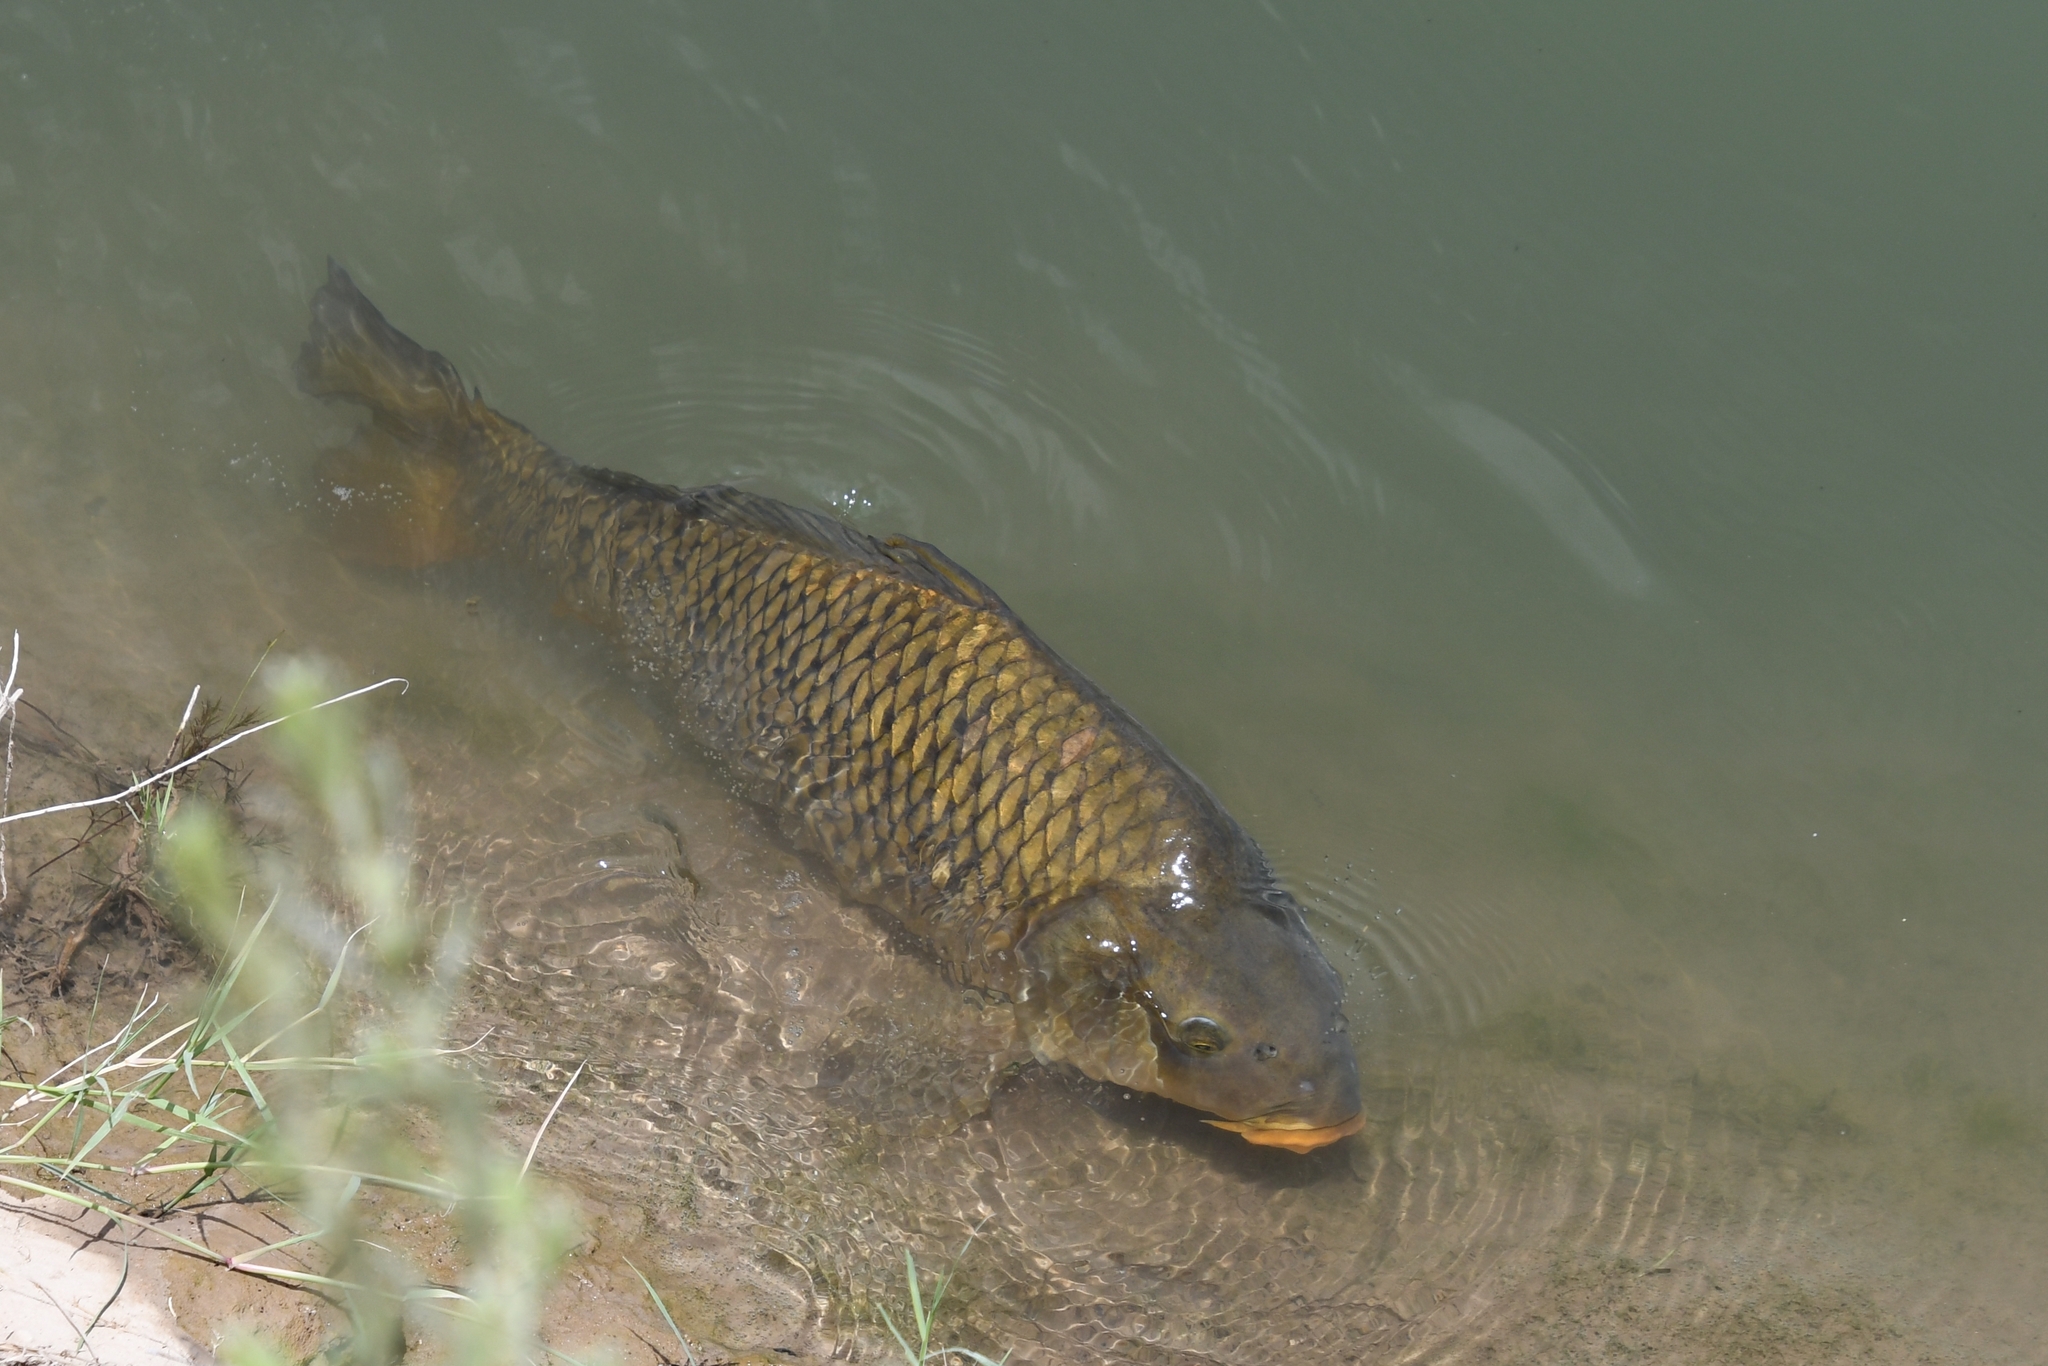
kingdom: Animalia
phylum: Chordata
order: Cypriniformes
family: Cyprinidae
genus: Cyprinus
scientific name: Cyprinus carpio
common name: Common carp
